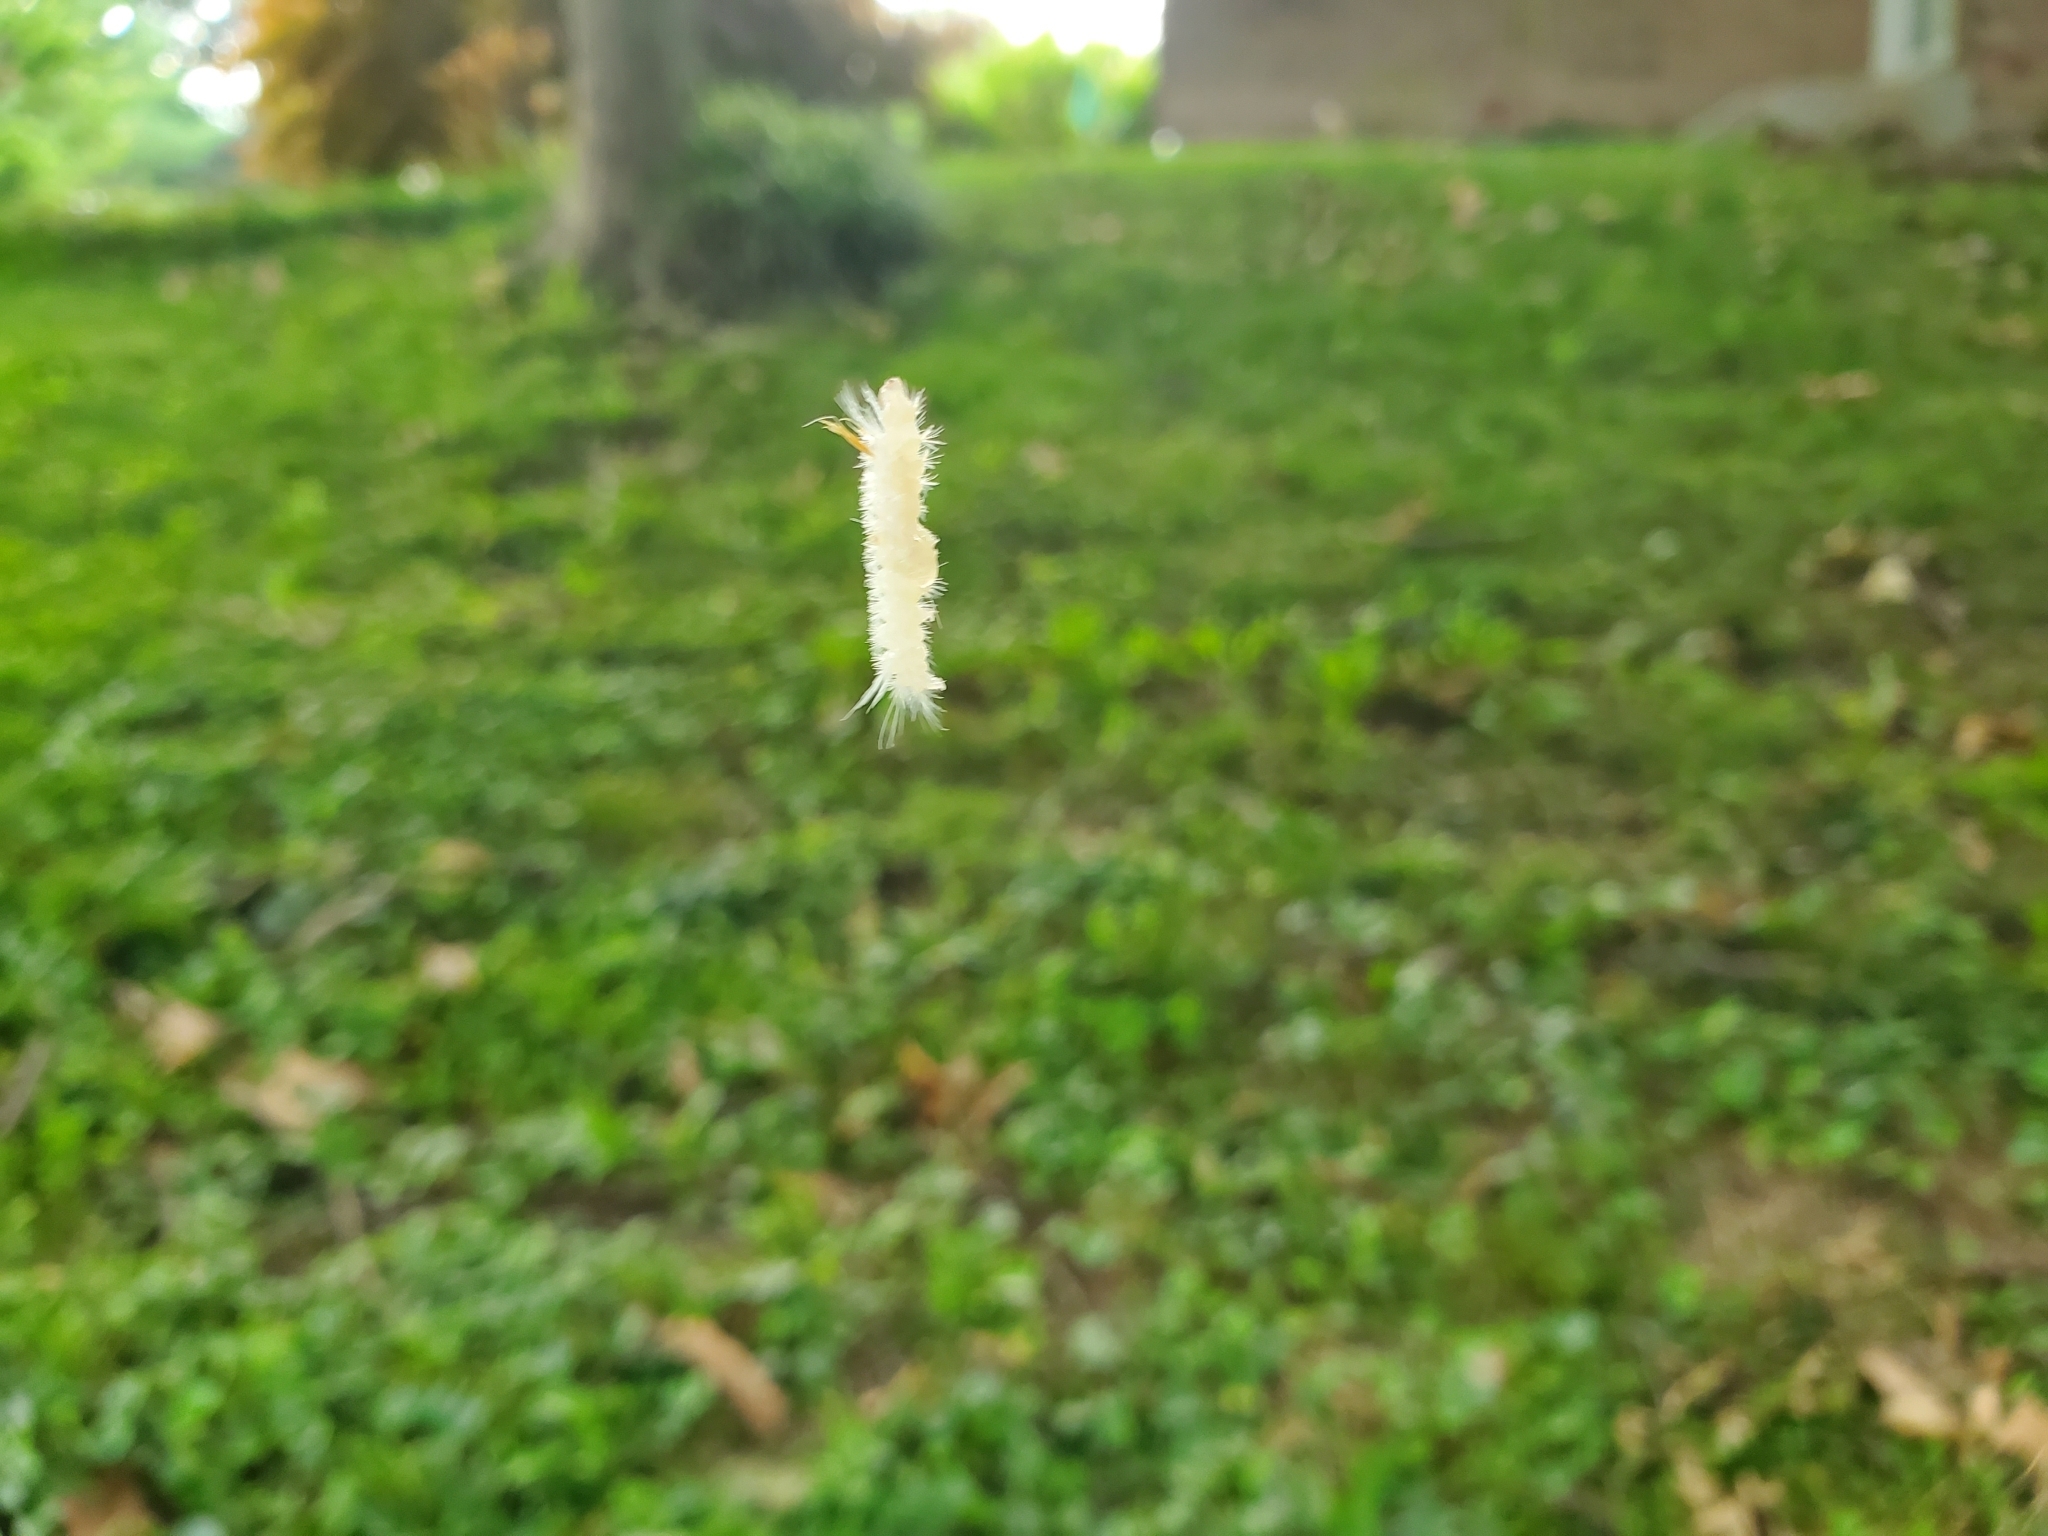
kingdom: Animalia
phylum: Arthropoda
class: Insecta
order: Lepidoptera
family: Erebidae
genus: Halysidota
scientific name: Halysidota harrisii
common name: Sycamore tussock moth
